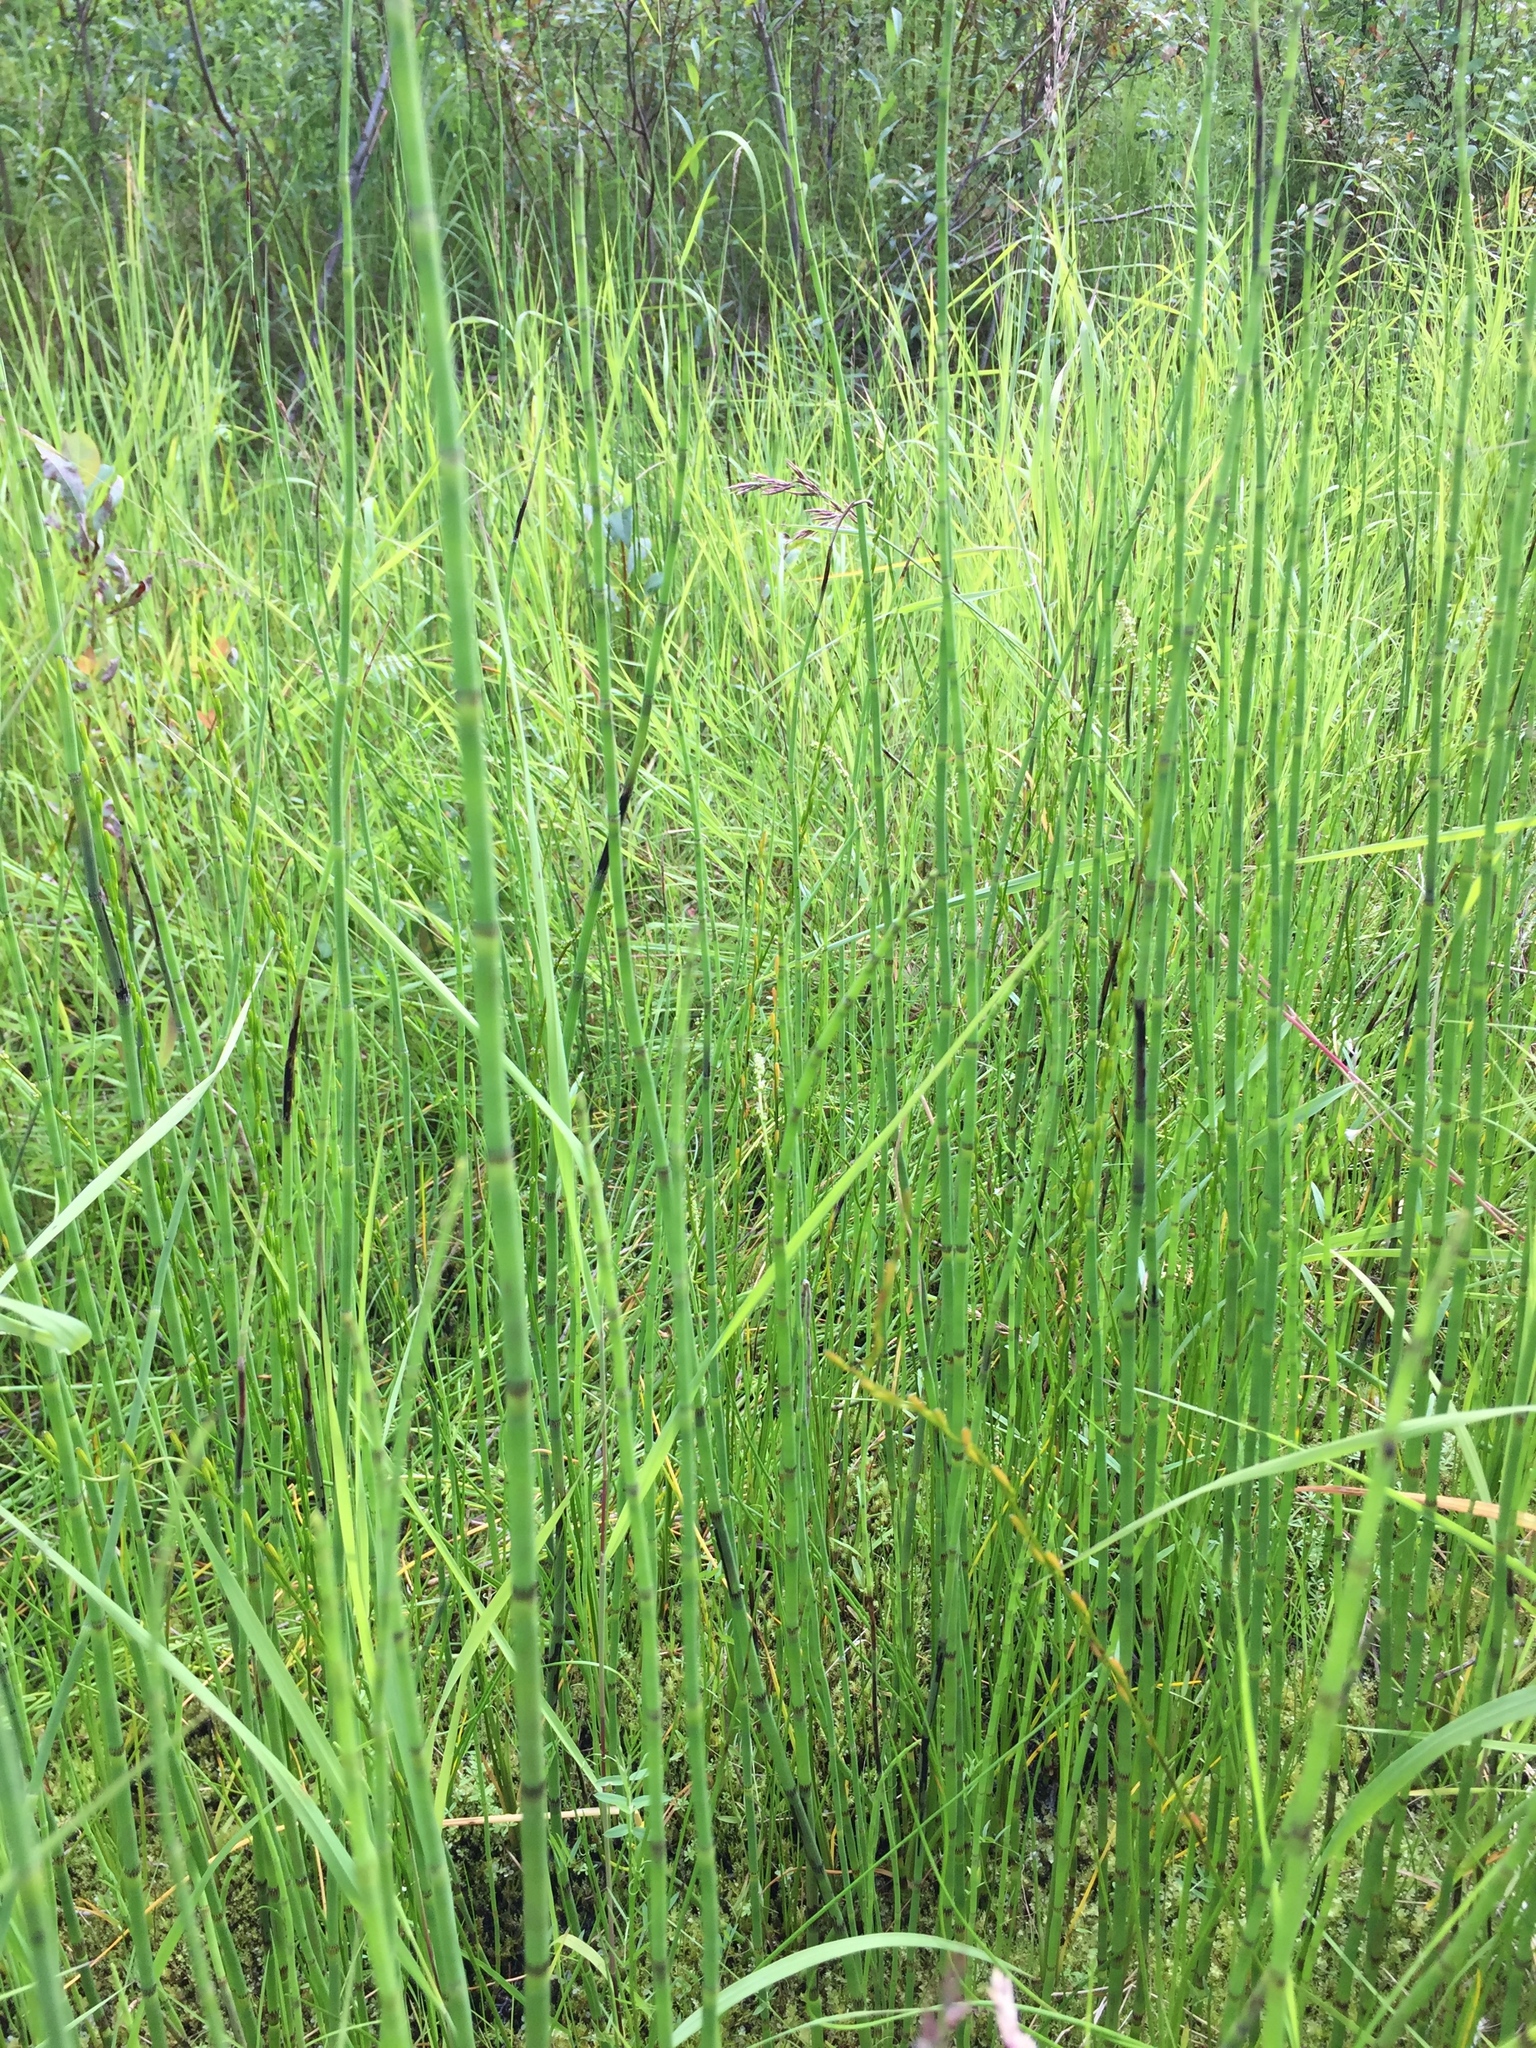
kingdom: Plantae
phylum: Tracheophyta
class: Polypodiopsida
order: Equisetales
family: Equisetaceae
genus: Equisetum
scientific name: Equisetum fluviatile
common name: Water horsetail
